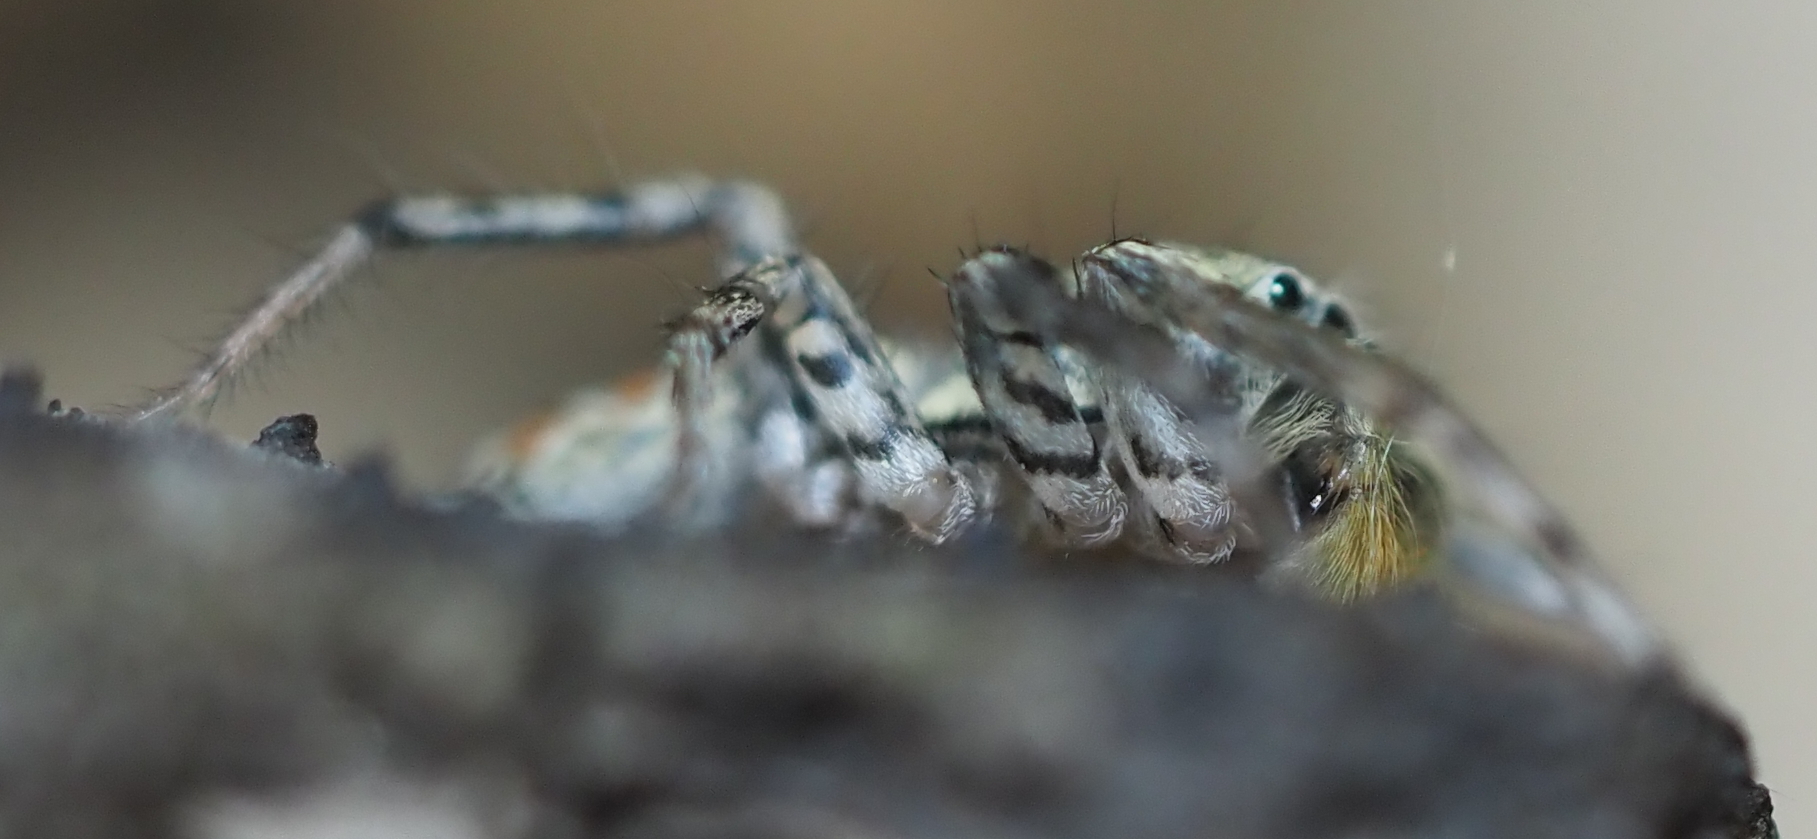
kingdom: Animalia
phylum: Arthropoda
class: Arachnida
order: Araneae
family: Salticidae
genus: Maevia
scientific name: Maevia inclemens
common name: Dimorphic jumper
